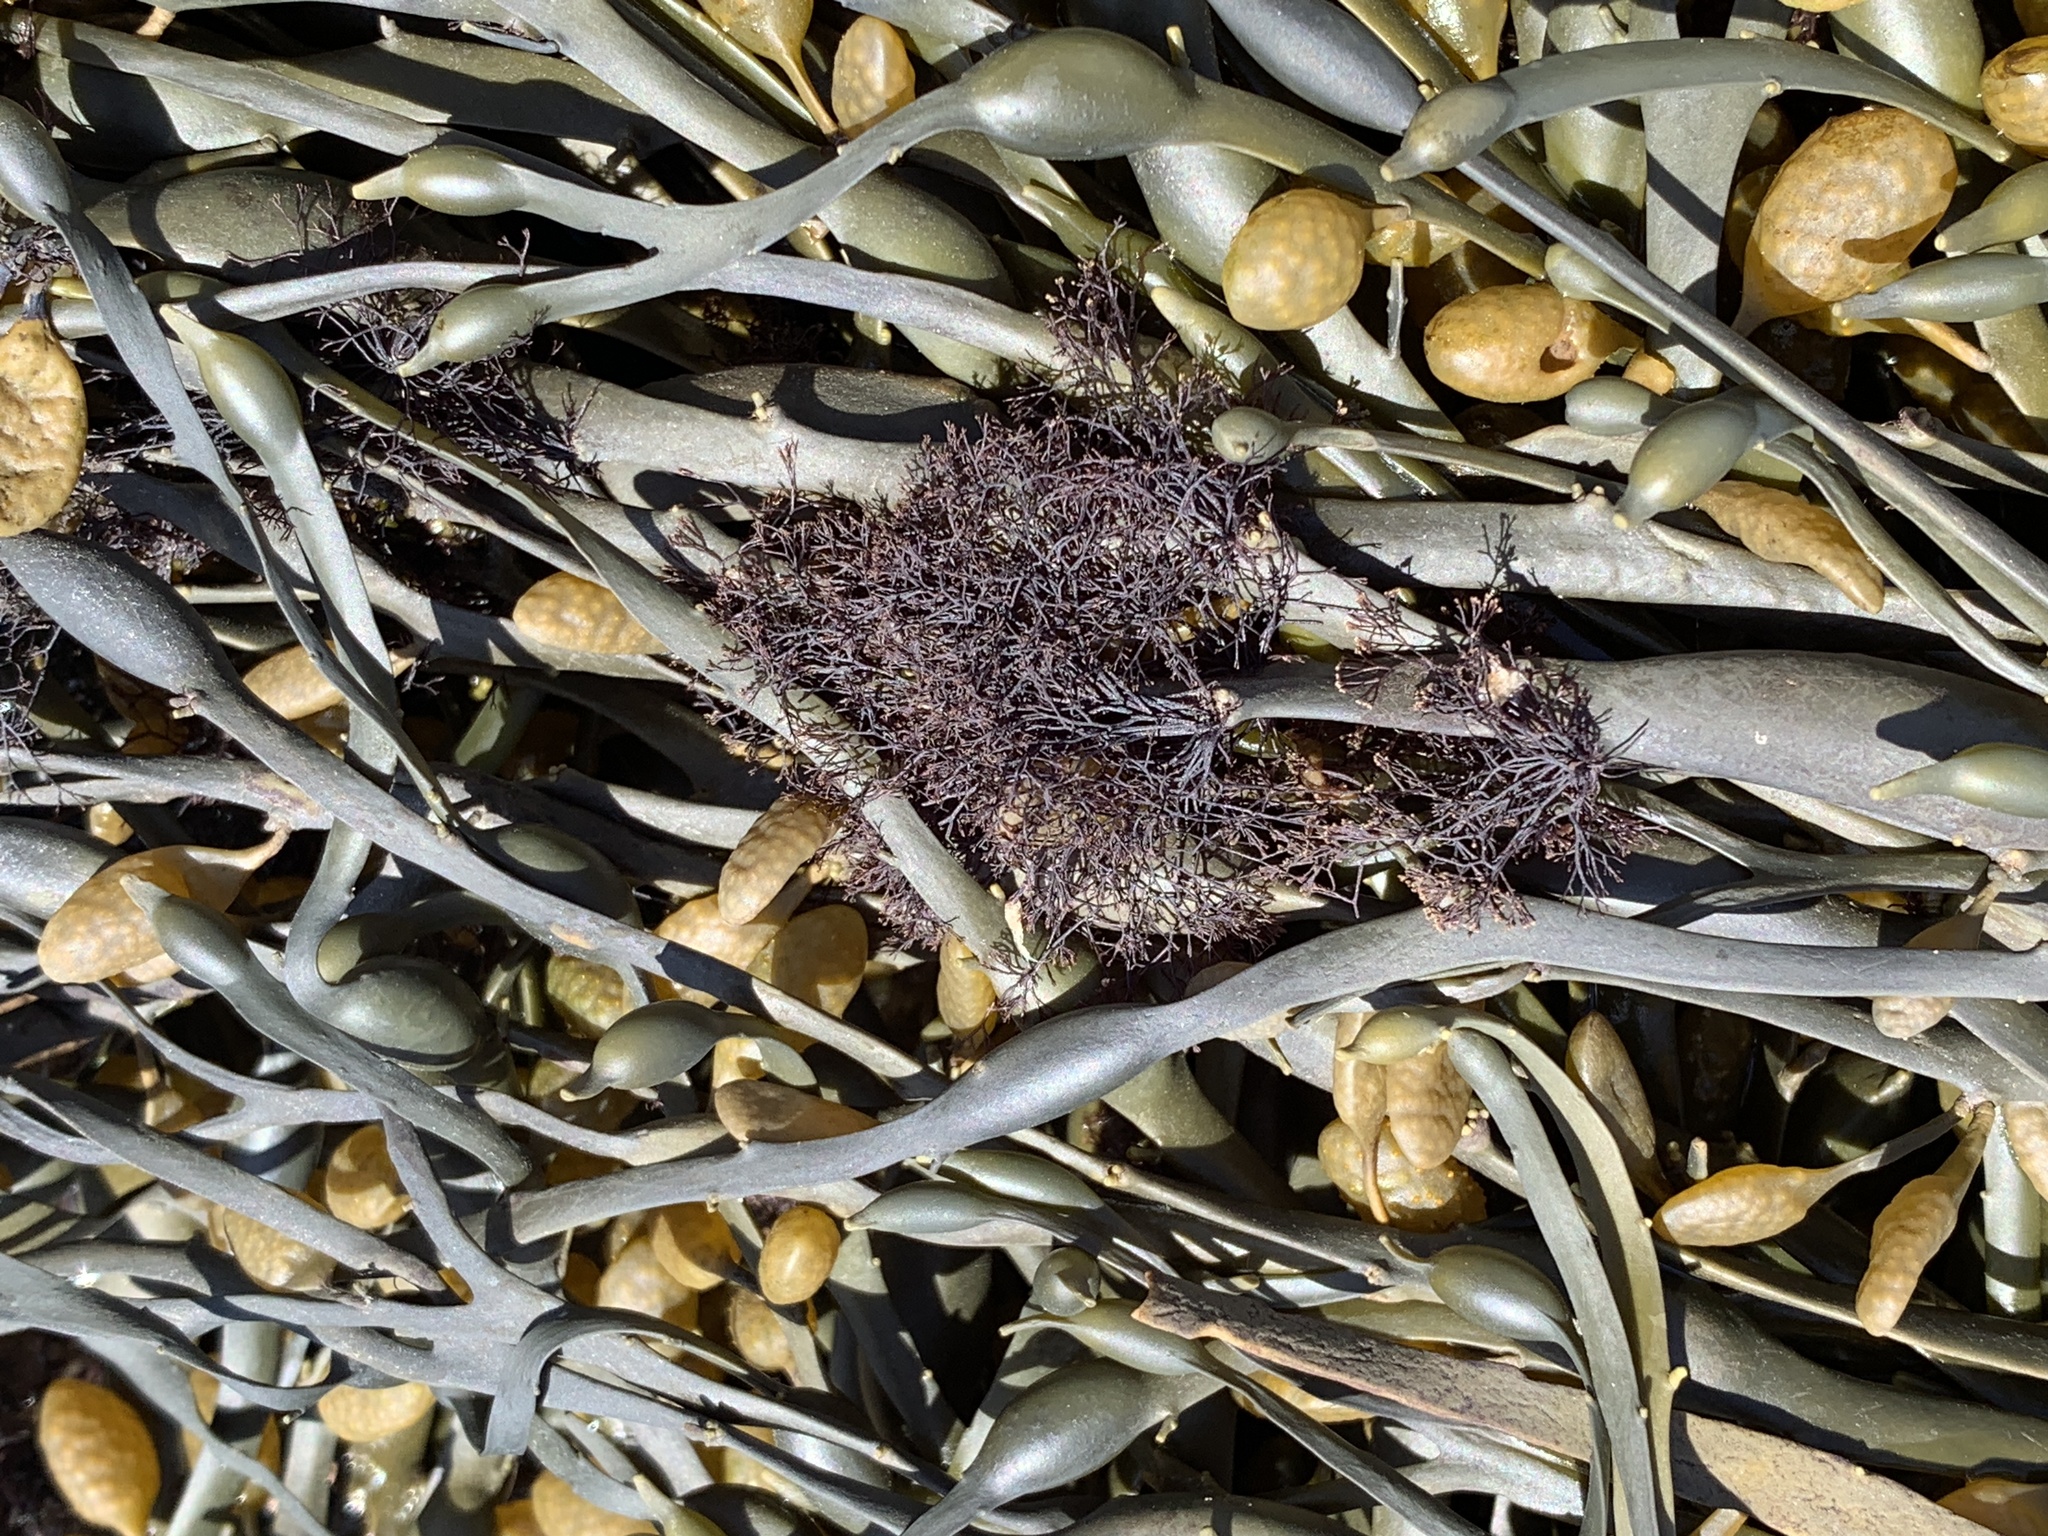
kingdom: Plantae
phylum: Rhodophyta
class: Florideophyceae
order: Ceramiales
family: Rhodomelaceae
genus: Vertebrata
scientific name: Vertebrata lanosa
